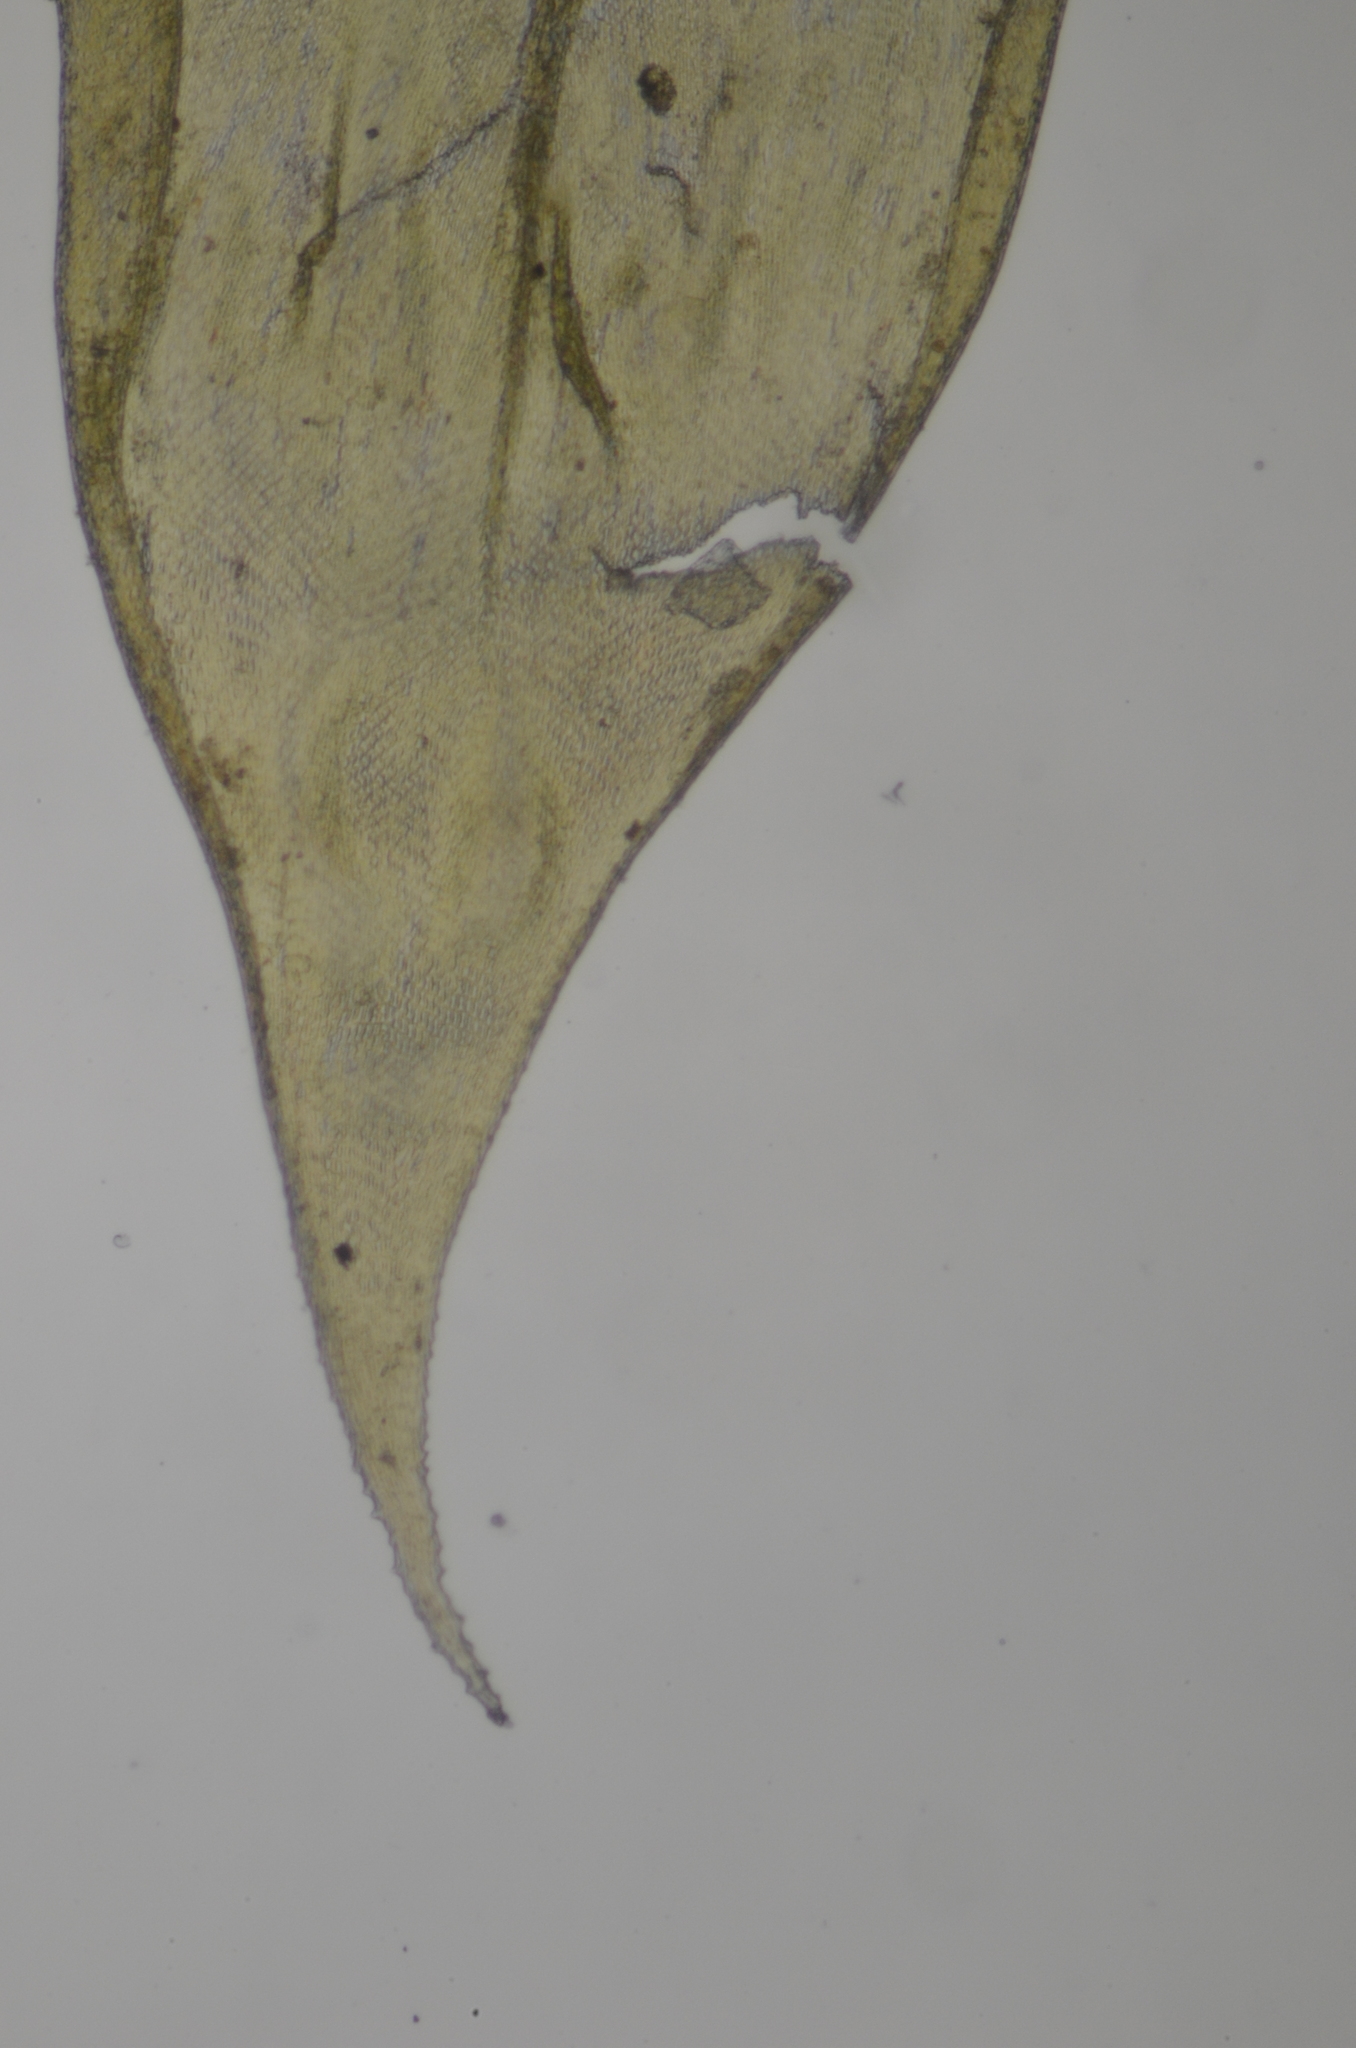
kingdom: Plantae
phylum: Bryophyta
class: Bryopsida
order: Hypnales
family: Antitrichiaceae
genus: Antitrichia
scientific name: Antitrichia curtipendula
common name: Pendulous wing-moss
